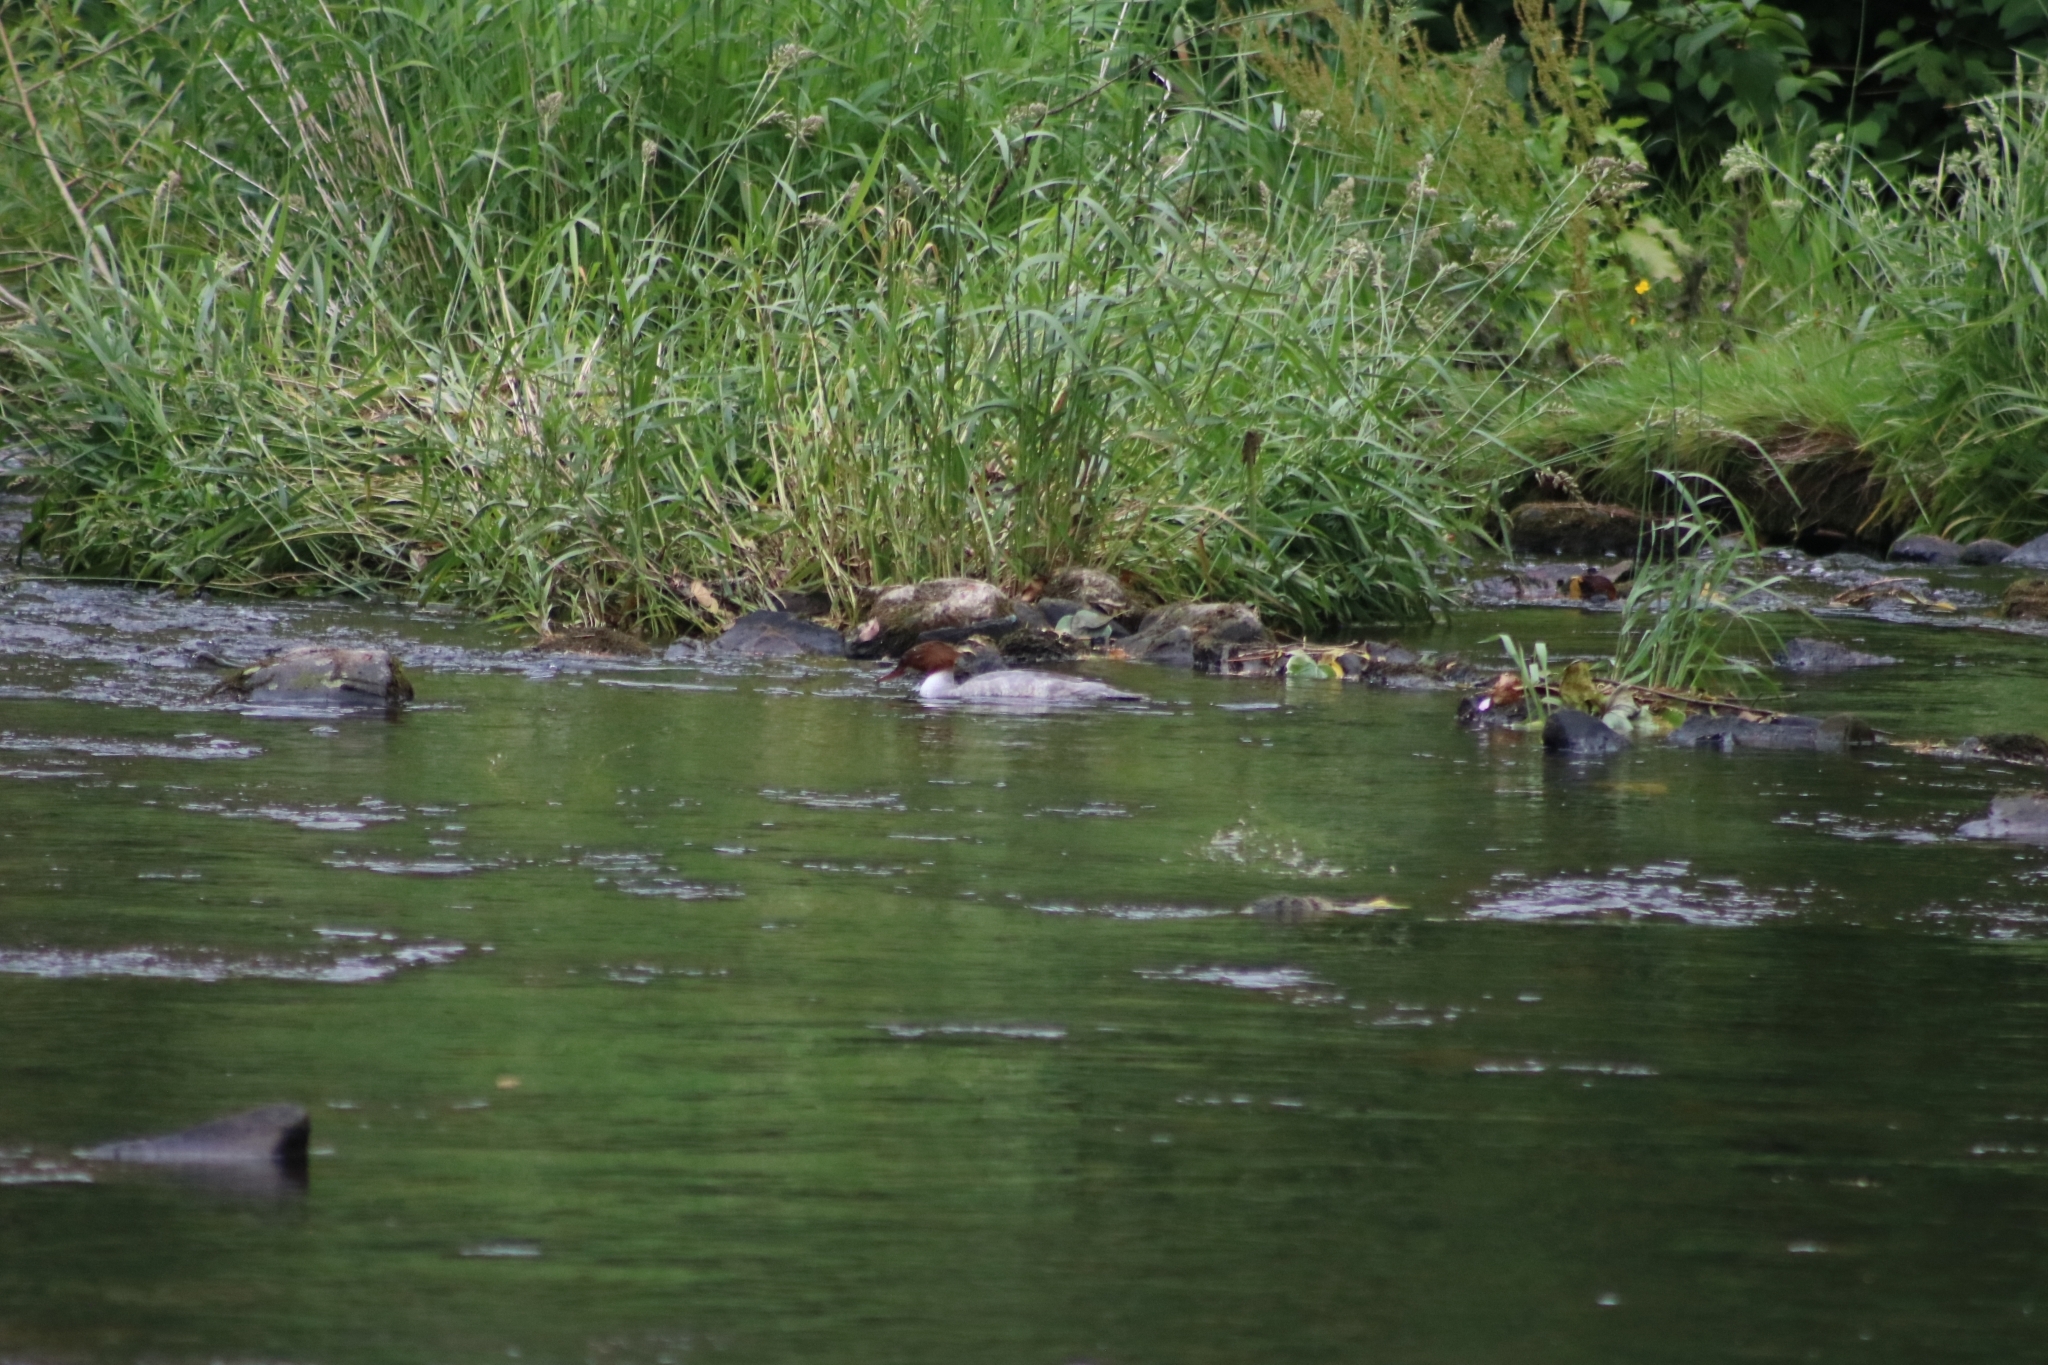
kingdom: Animalia
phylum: Chordata
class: Aves
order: Anseriformes
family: Anatidae
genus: Mergus
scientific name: Mergus merganser
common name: Common merganser
